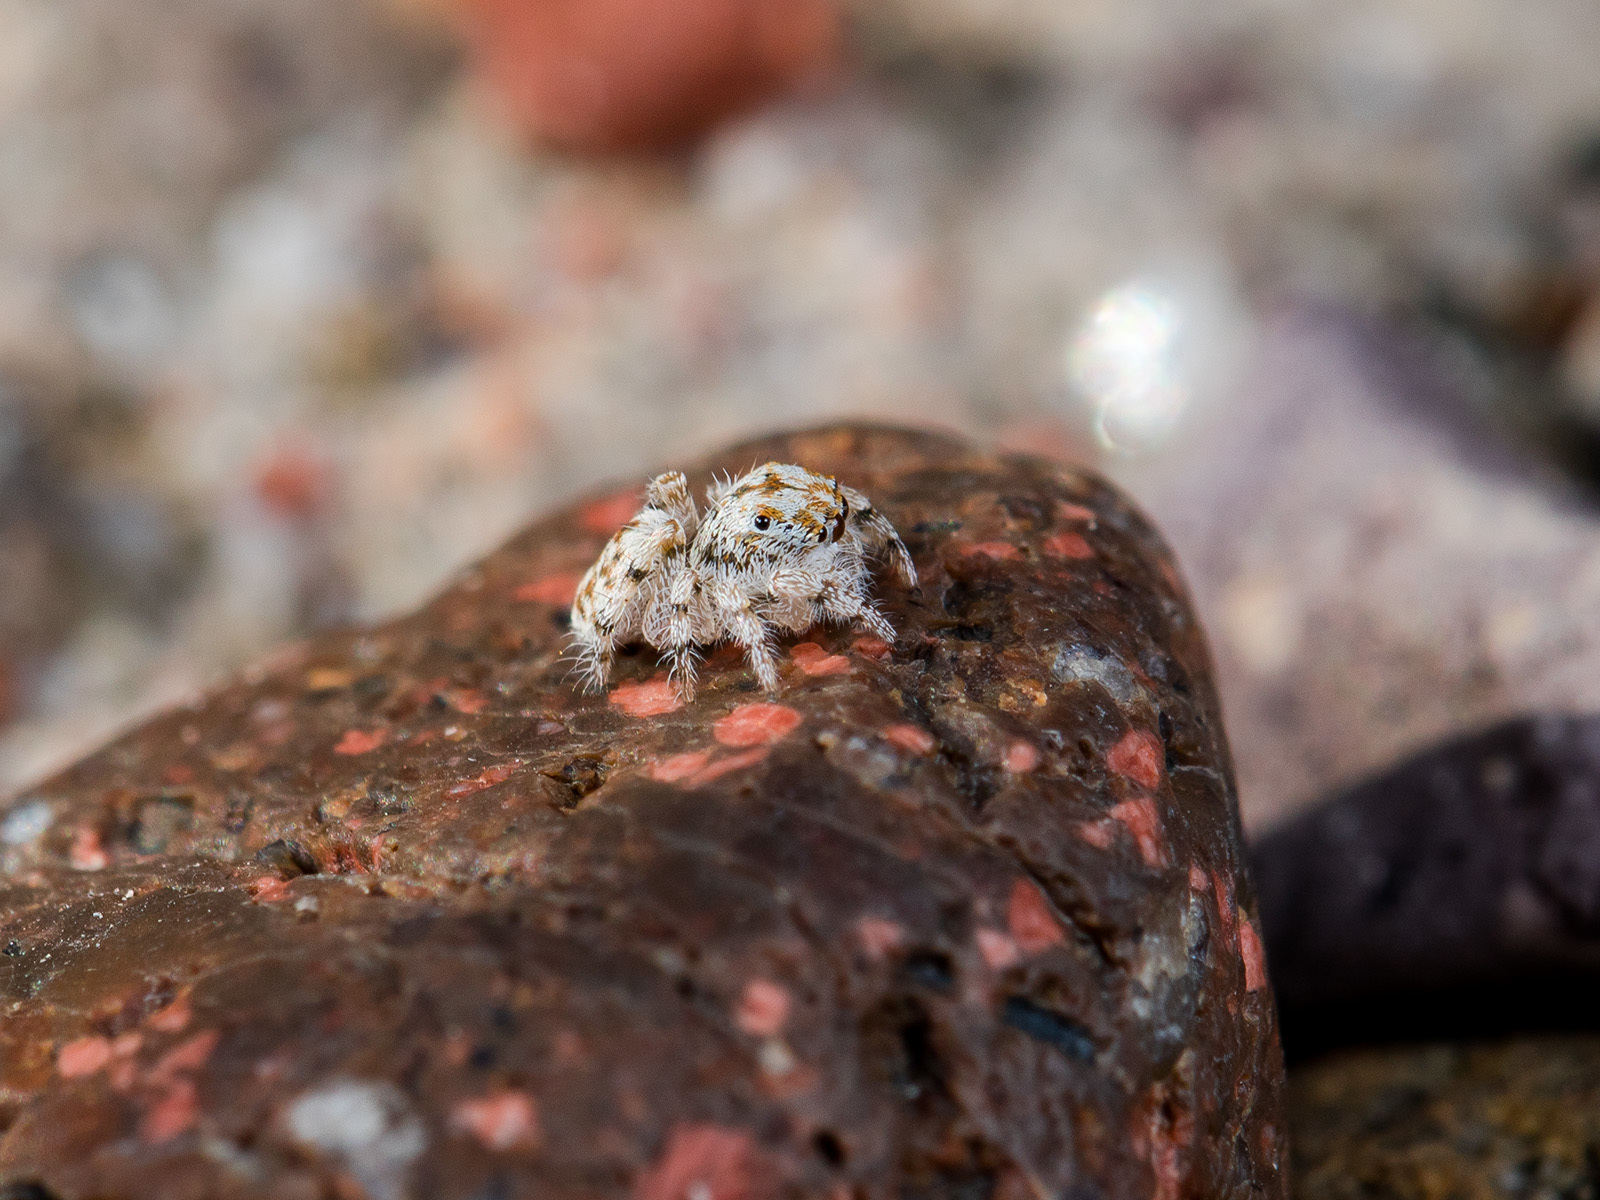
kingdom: Animalia
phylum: Arthropoda
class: Arachnida
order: Araneae
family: Salticidae
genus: Yllenus
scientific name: Yllenus uiguricus
